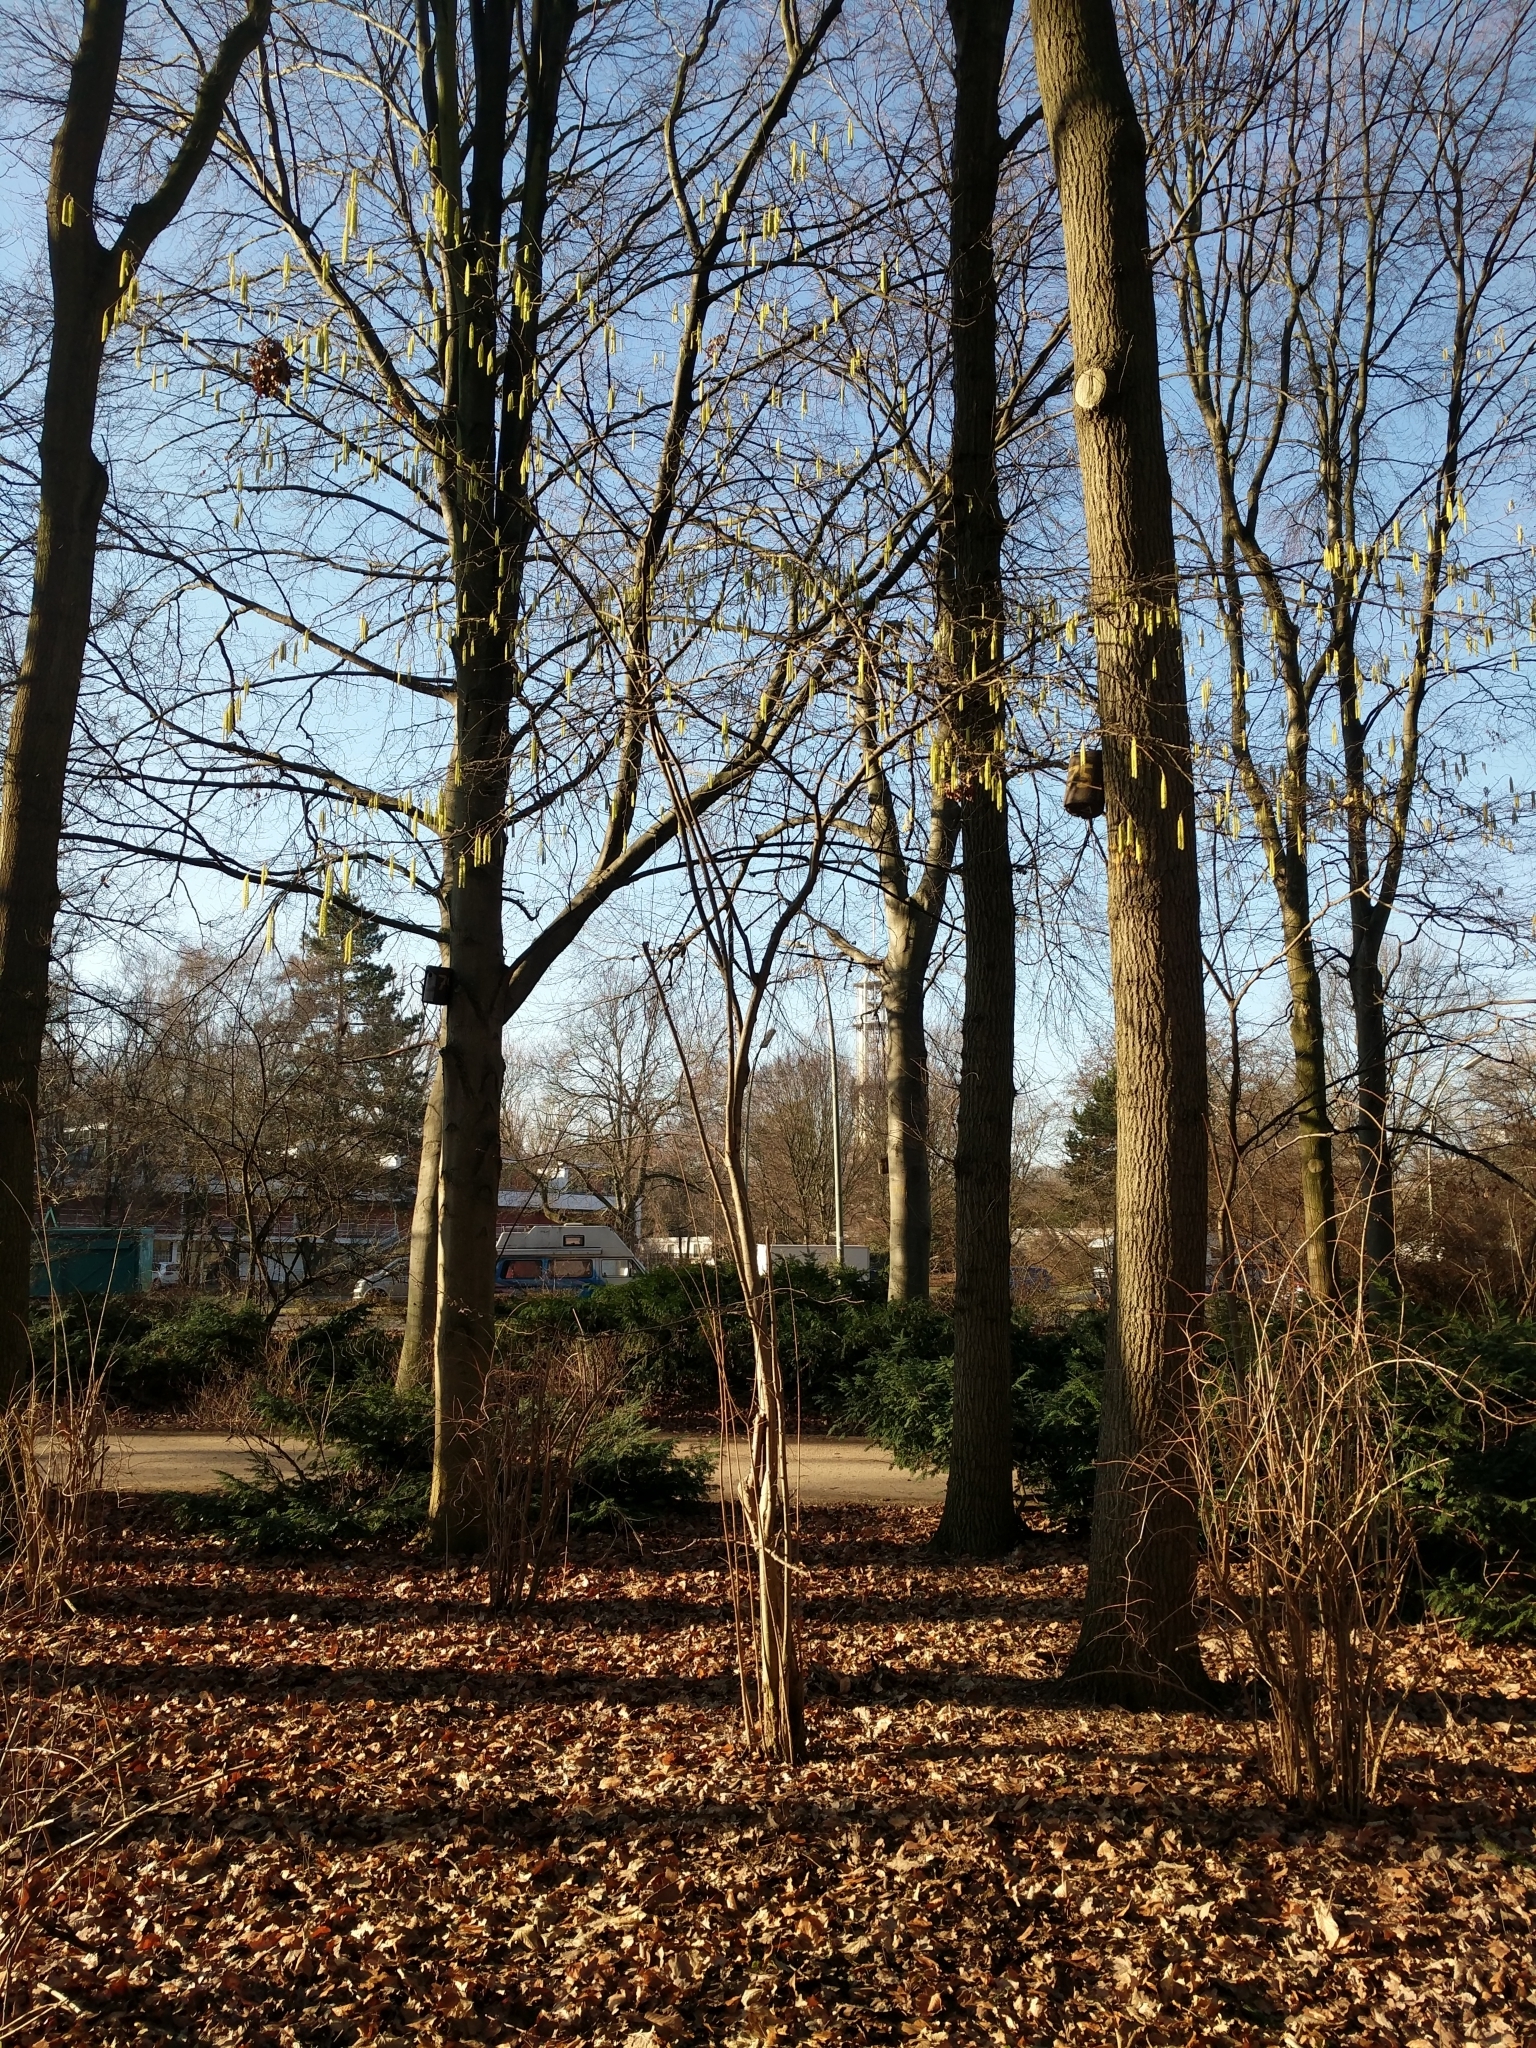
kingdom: Plantae
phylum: Tracheophyta
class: Magnoliopsida
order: Fagales
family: Betulaceae
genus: Corylus
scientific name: Corylus avellana
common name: European hazel
